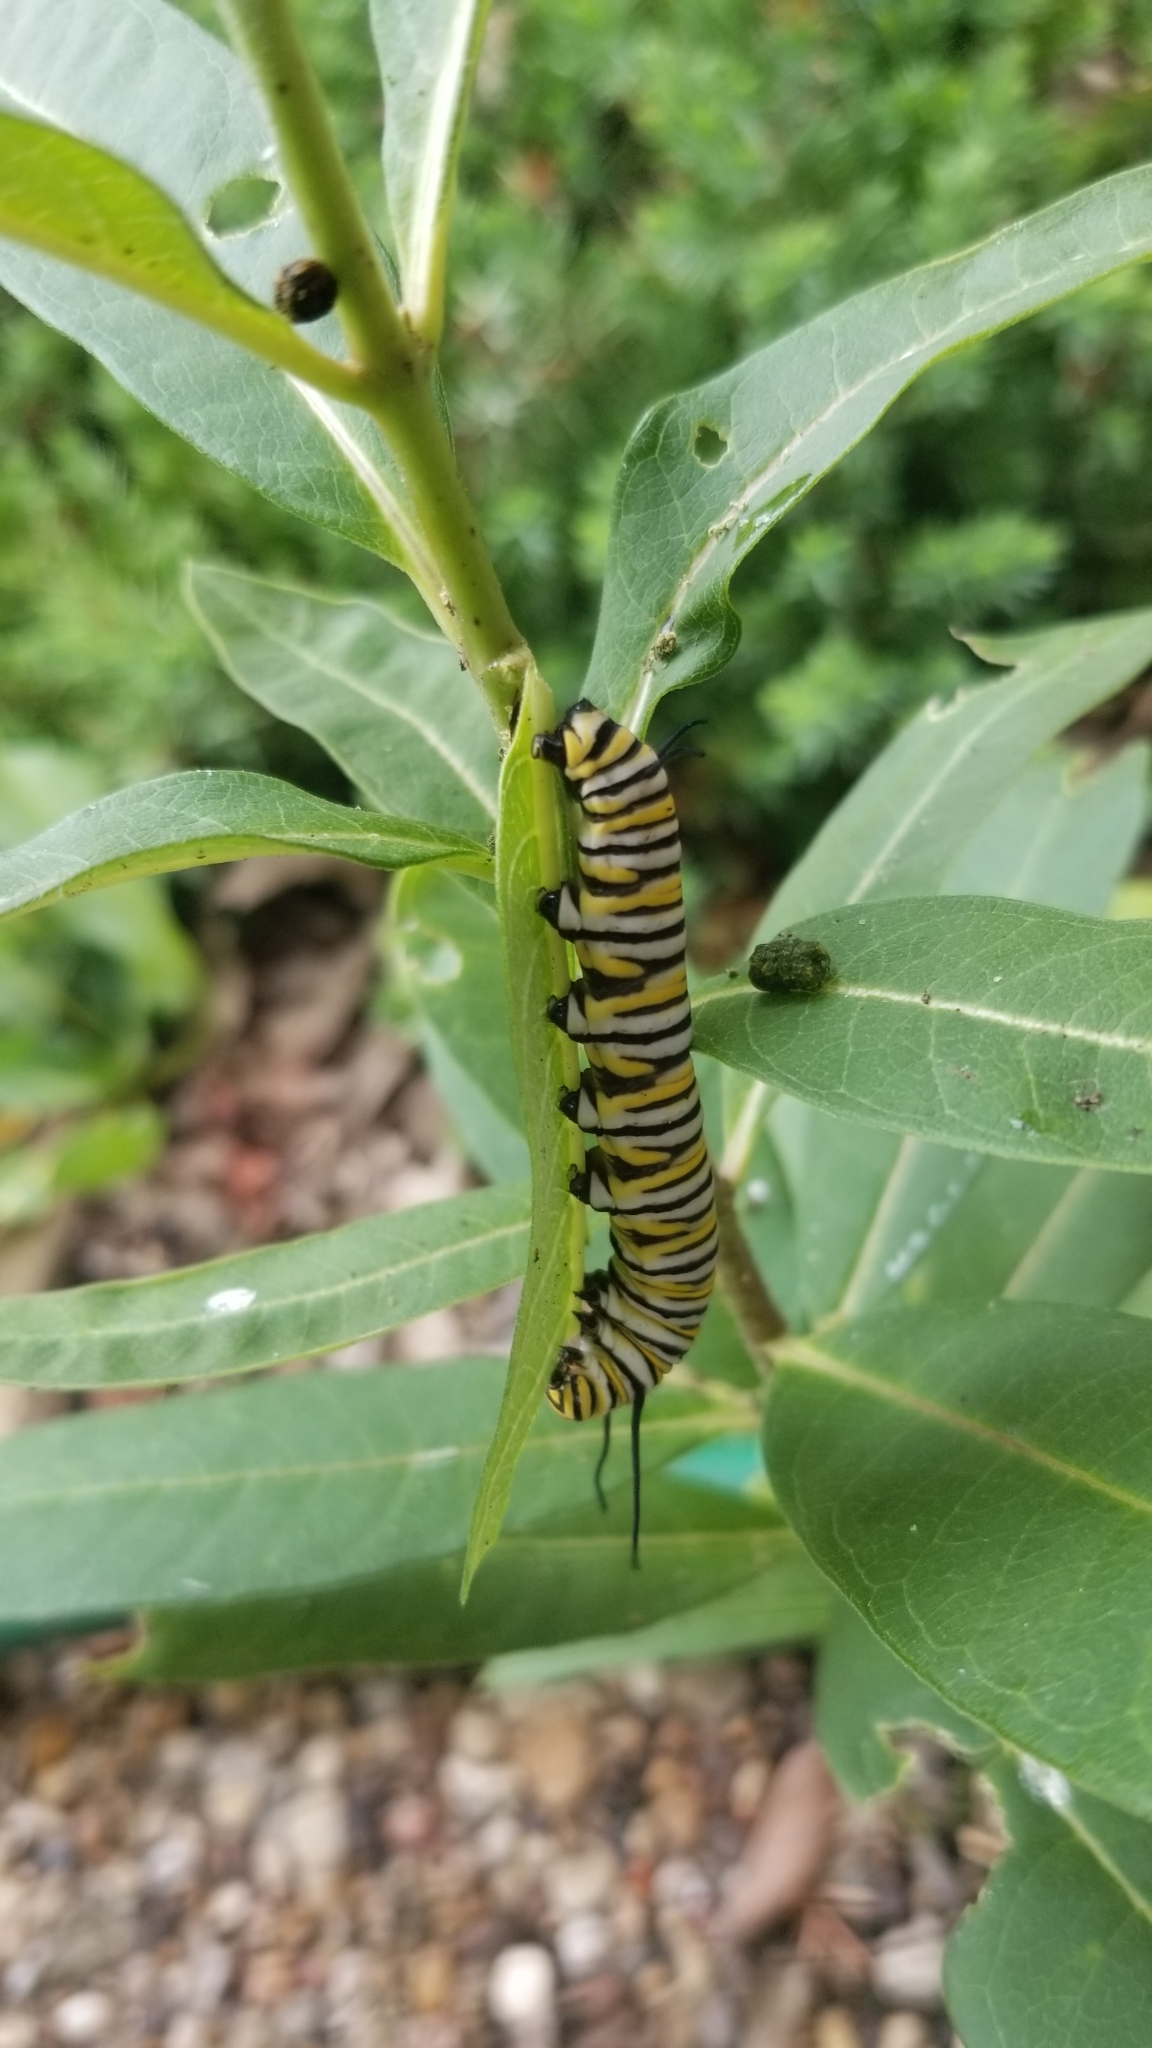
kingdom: Animalia
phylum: Arthropoda
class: Insecta
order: Lepidoptera
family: Nymphalidae
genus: Danaus
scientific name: Danaus plexippus
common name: Monarch
